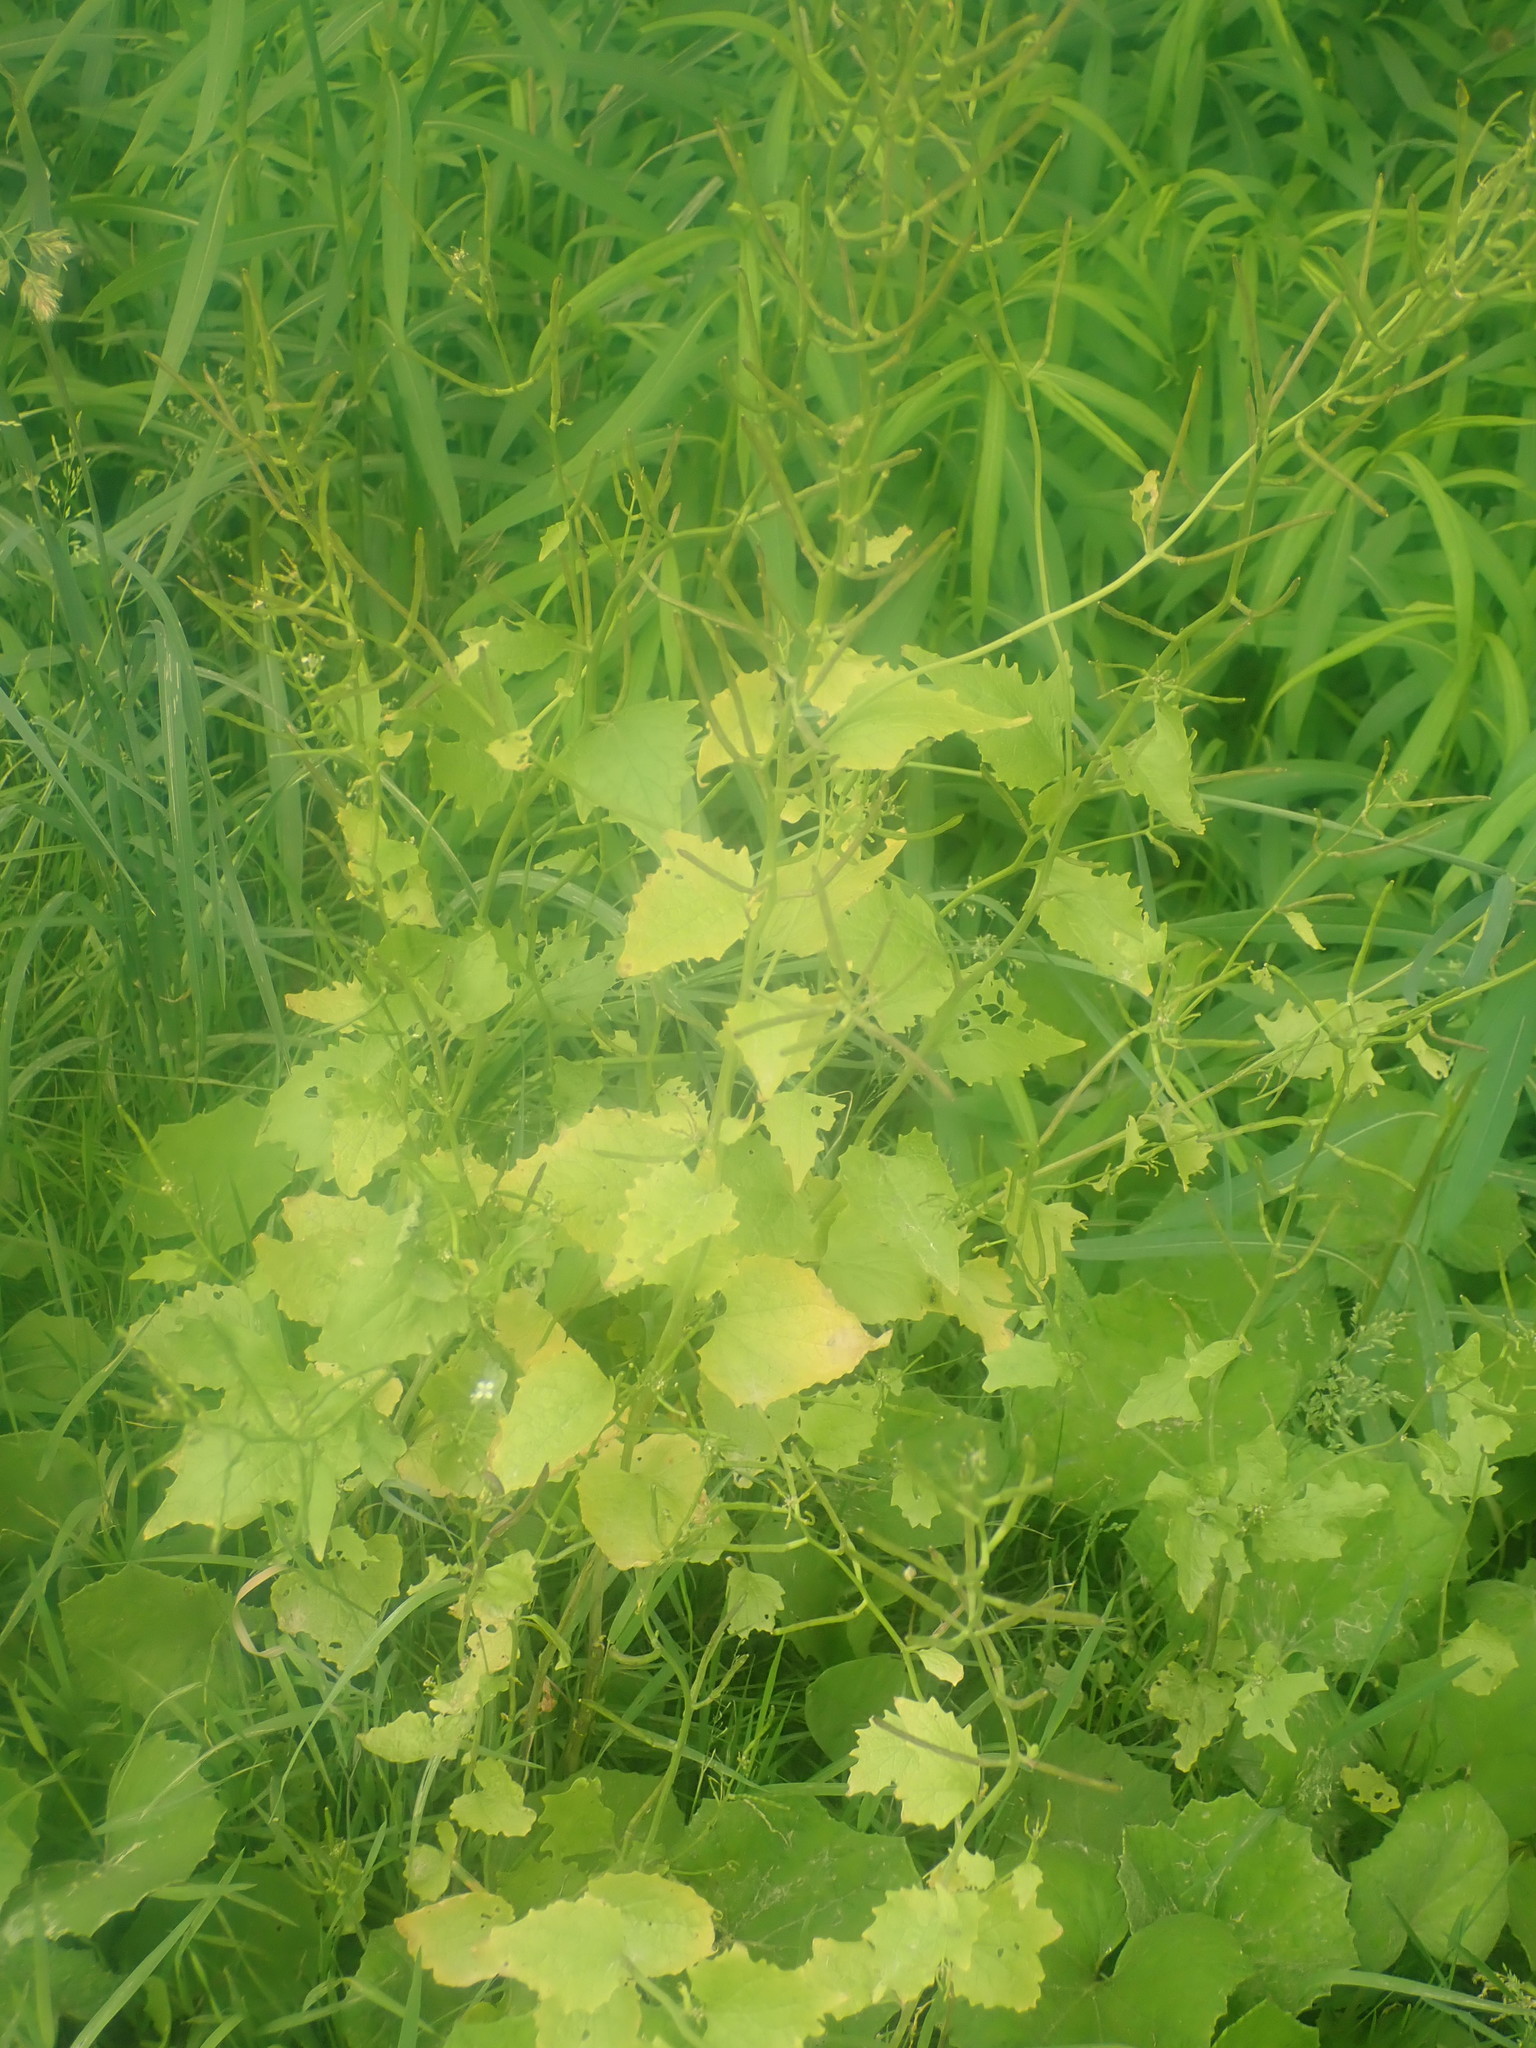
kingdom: Plantae
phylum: Tracheophyta
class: Magnoliopsida
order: Brassicales
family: Brassicaceae
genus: Alliaria
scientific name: Alliaria petiolata
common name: Garlic mustard
